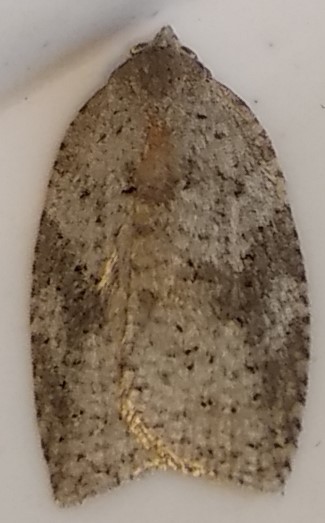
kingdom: Animalia
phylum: Arthropoda
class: Insecta
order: Lepidoptera
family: Tortricidae
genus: Amorbia
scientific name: Amorbia humerosana
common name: White-lined leafroller moth
